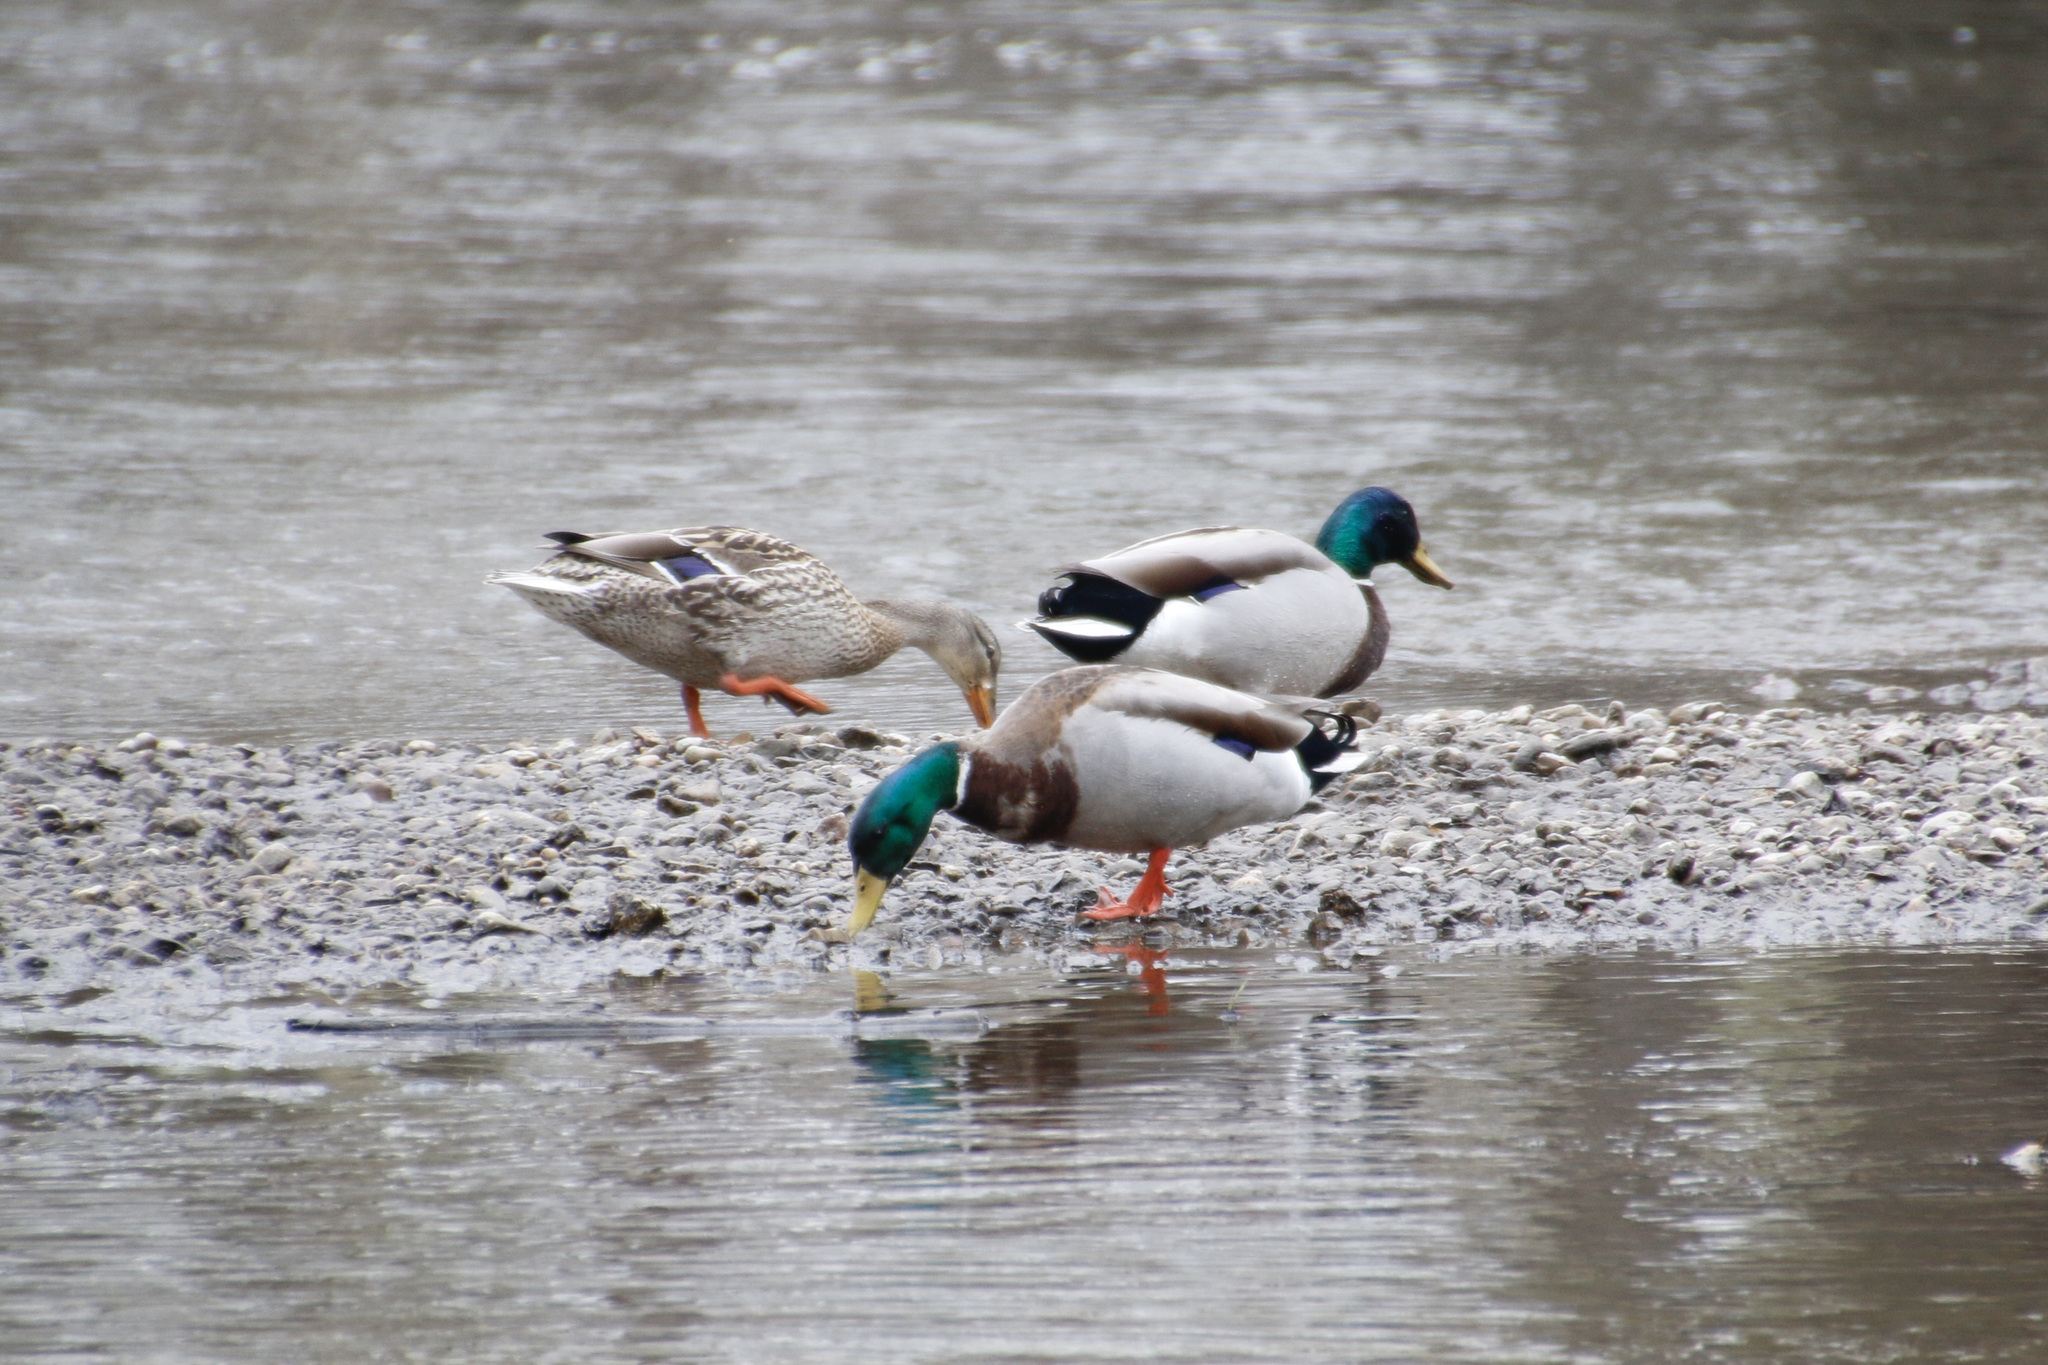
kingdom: Animalia
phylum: Chordata
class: Aves
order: Anseriformes
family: Anatidae
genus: Anas
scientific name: Anas platyrhynchos
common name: Mallard
